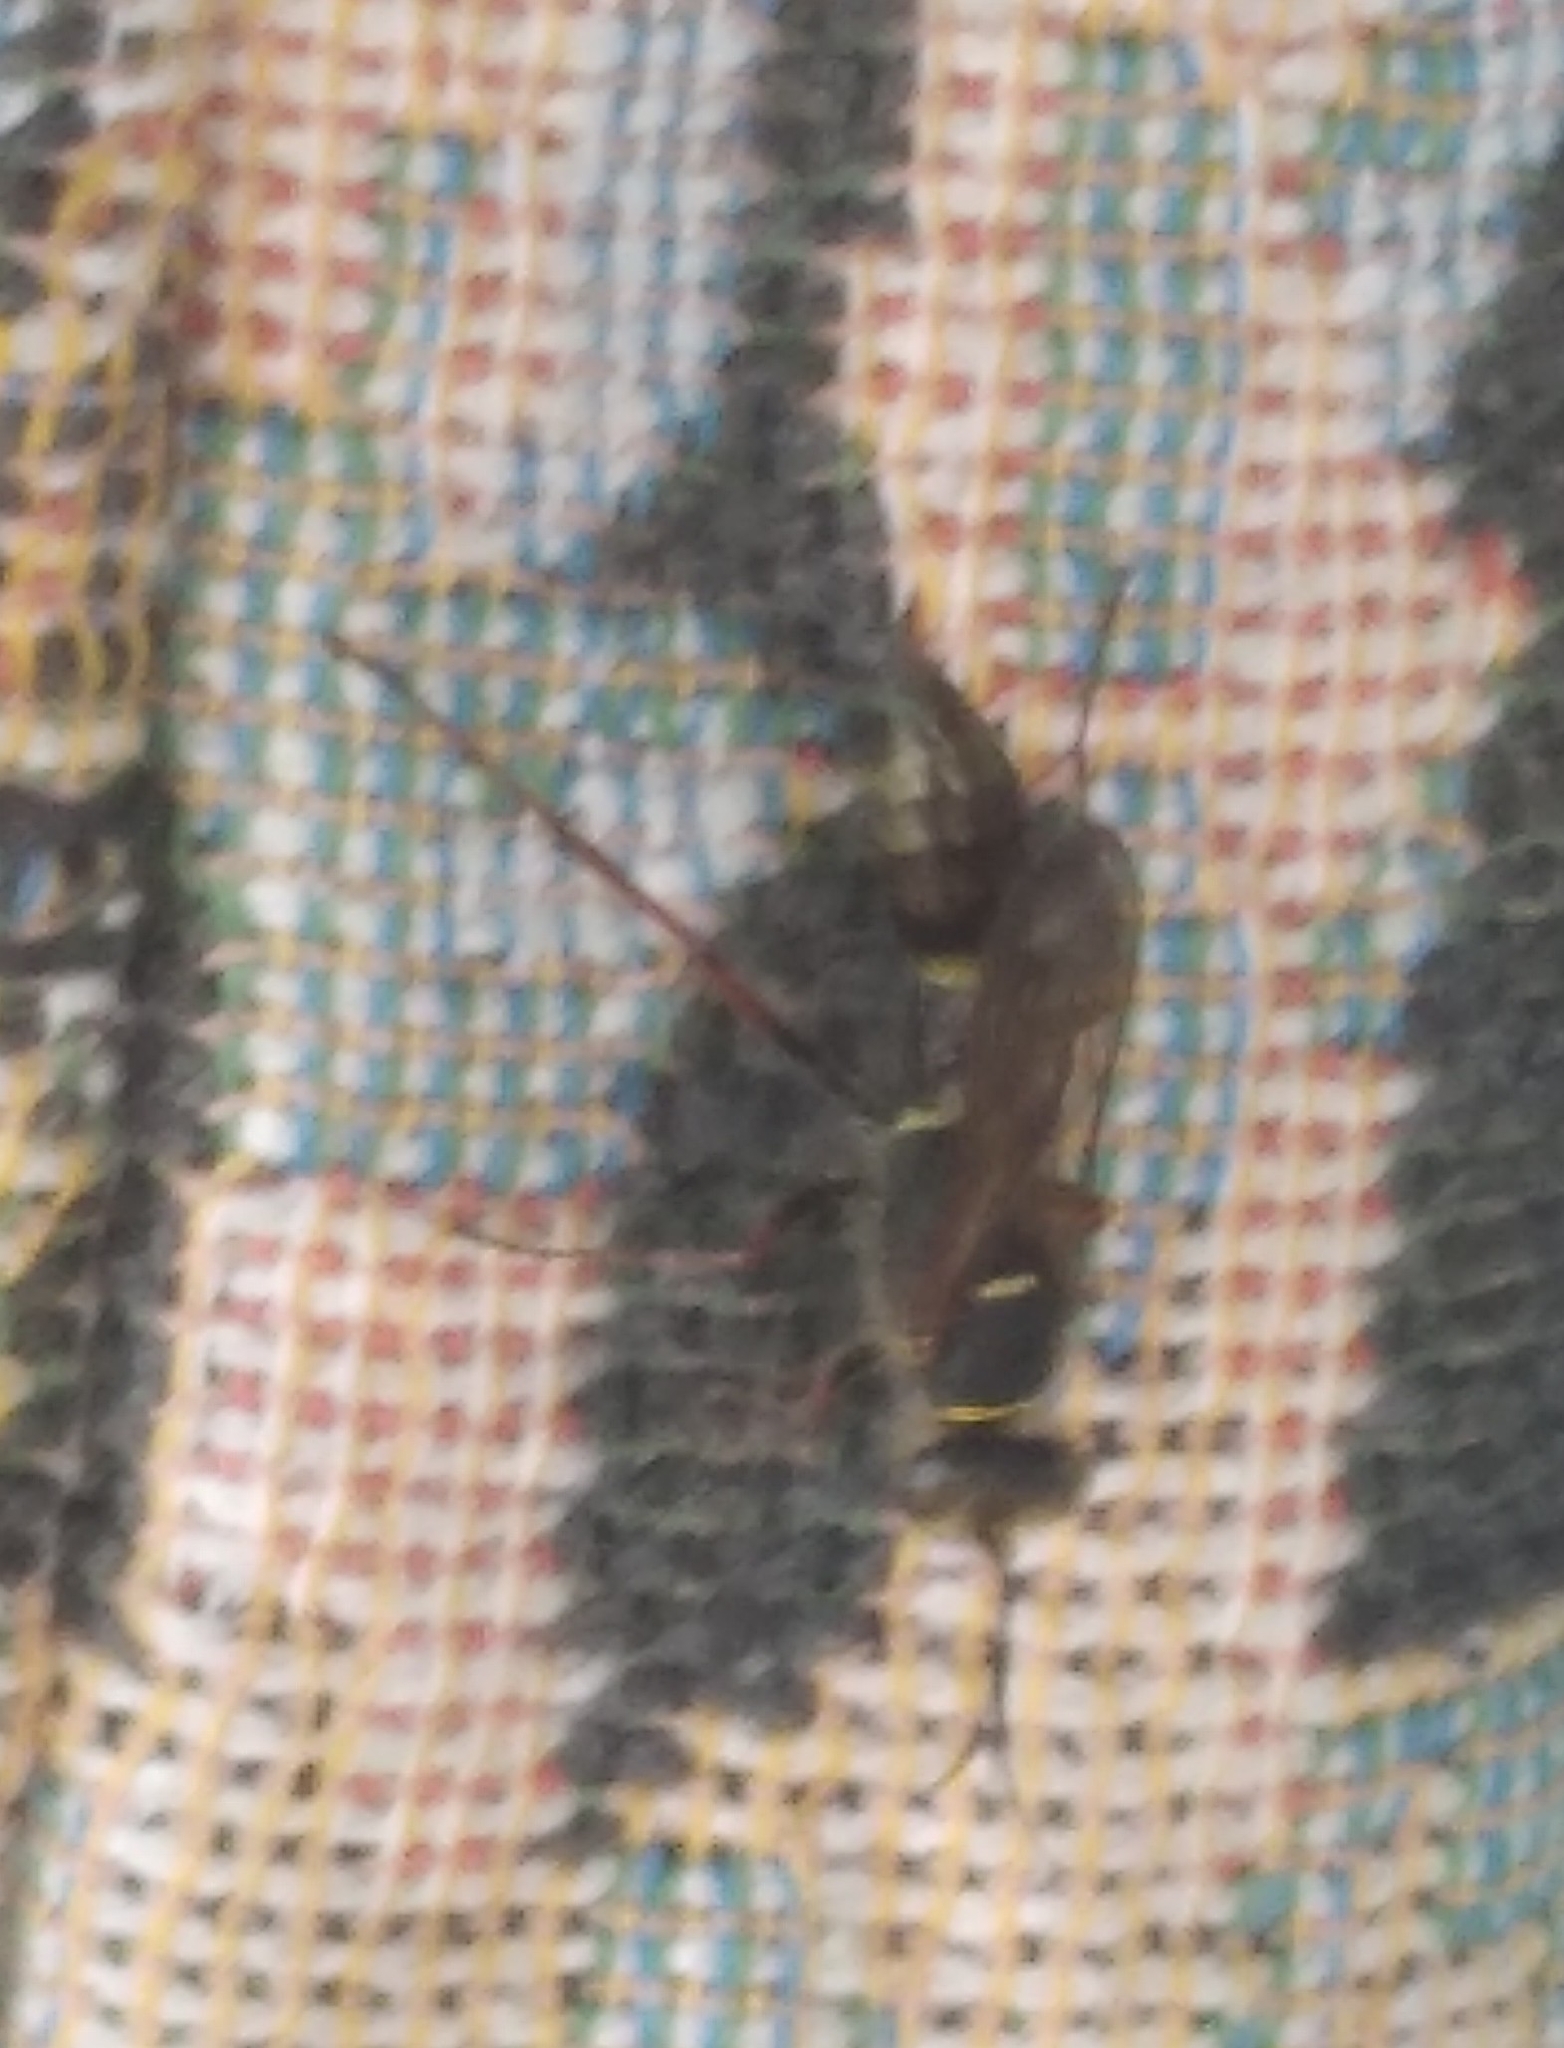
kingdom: Animalia
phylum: Arthropoda
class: Insecta
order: Hymenoptera
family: Sphecidae
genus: Sceliphron
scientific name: Sceliphron
